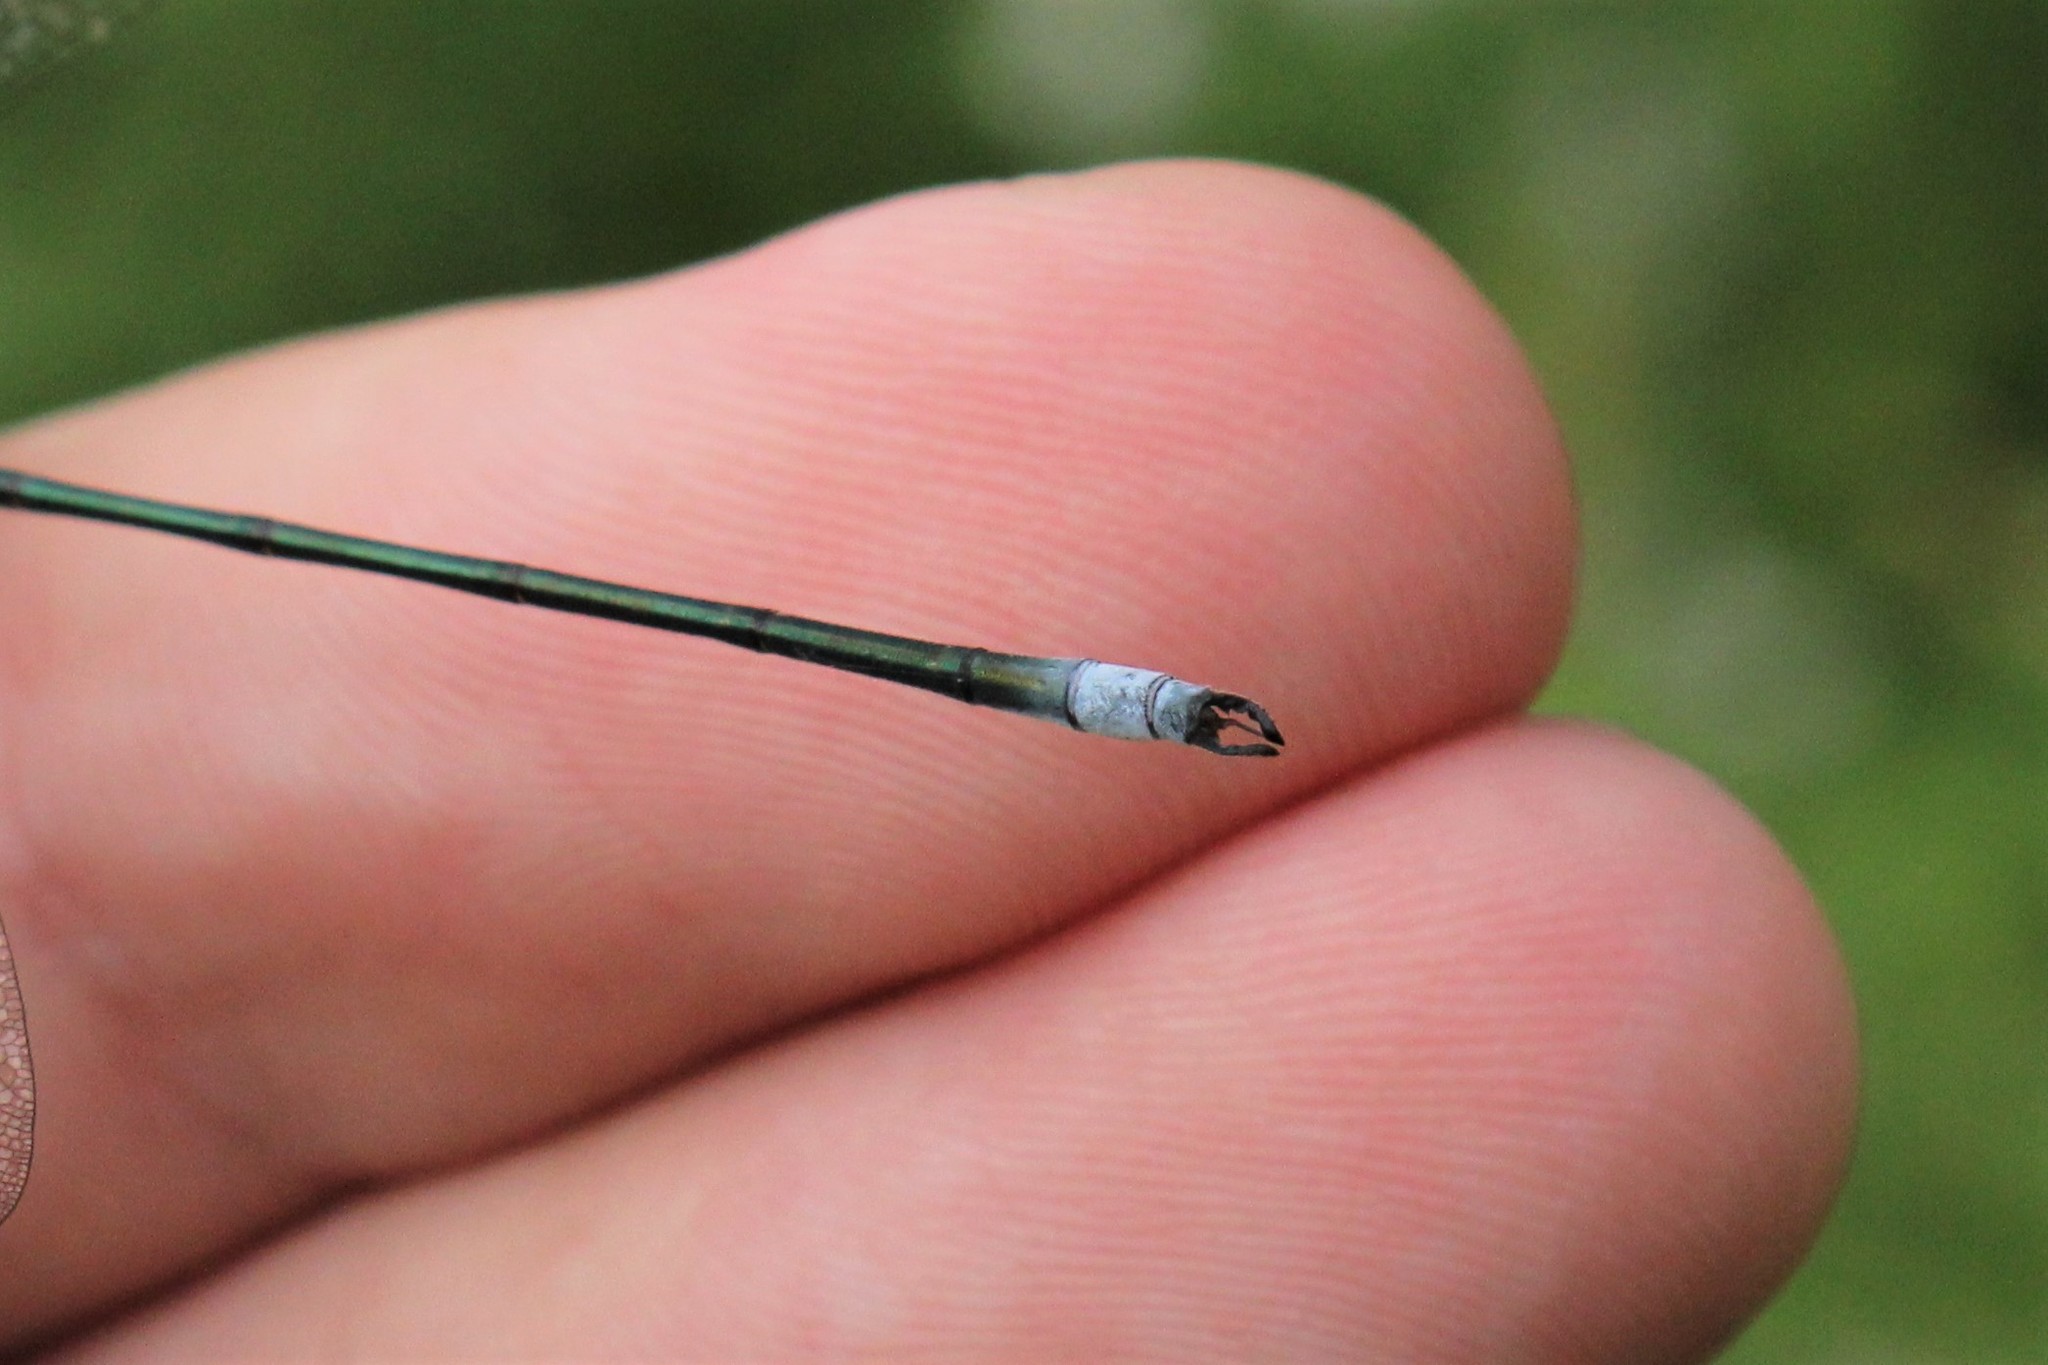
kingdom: Animalia
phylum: Arthropoda
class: Insecta
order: Odonata
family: Lestidae
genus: Lestes
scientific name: Lestes vigilax
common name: Swamp spreadwing
